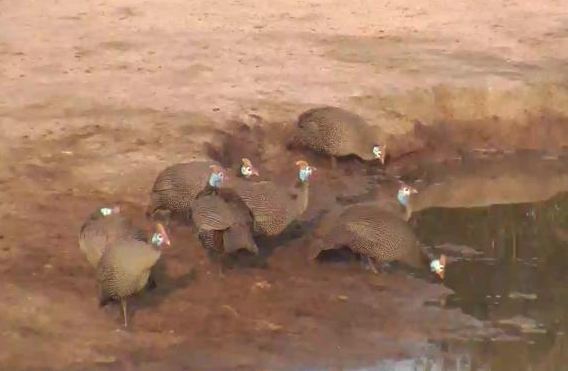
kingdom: Animalia
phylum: Chordata
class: Aves
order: Galliformes
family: Numididae
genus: Numida
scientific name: Numida meleagris
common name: Helmeted guineafowl
